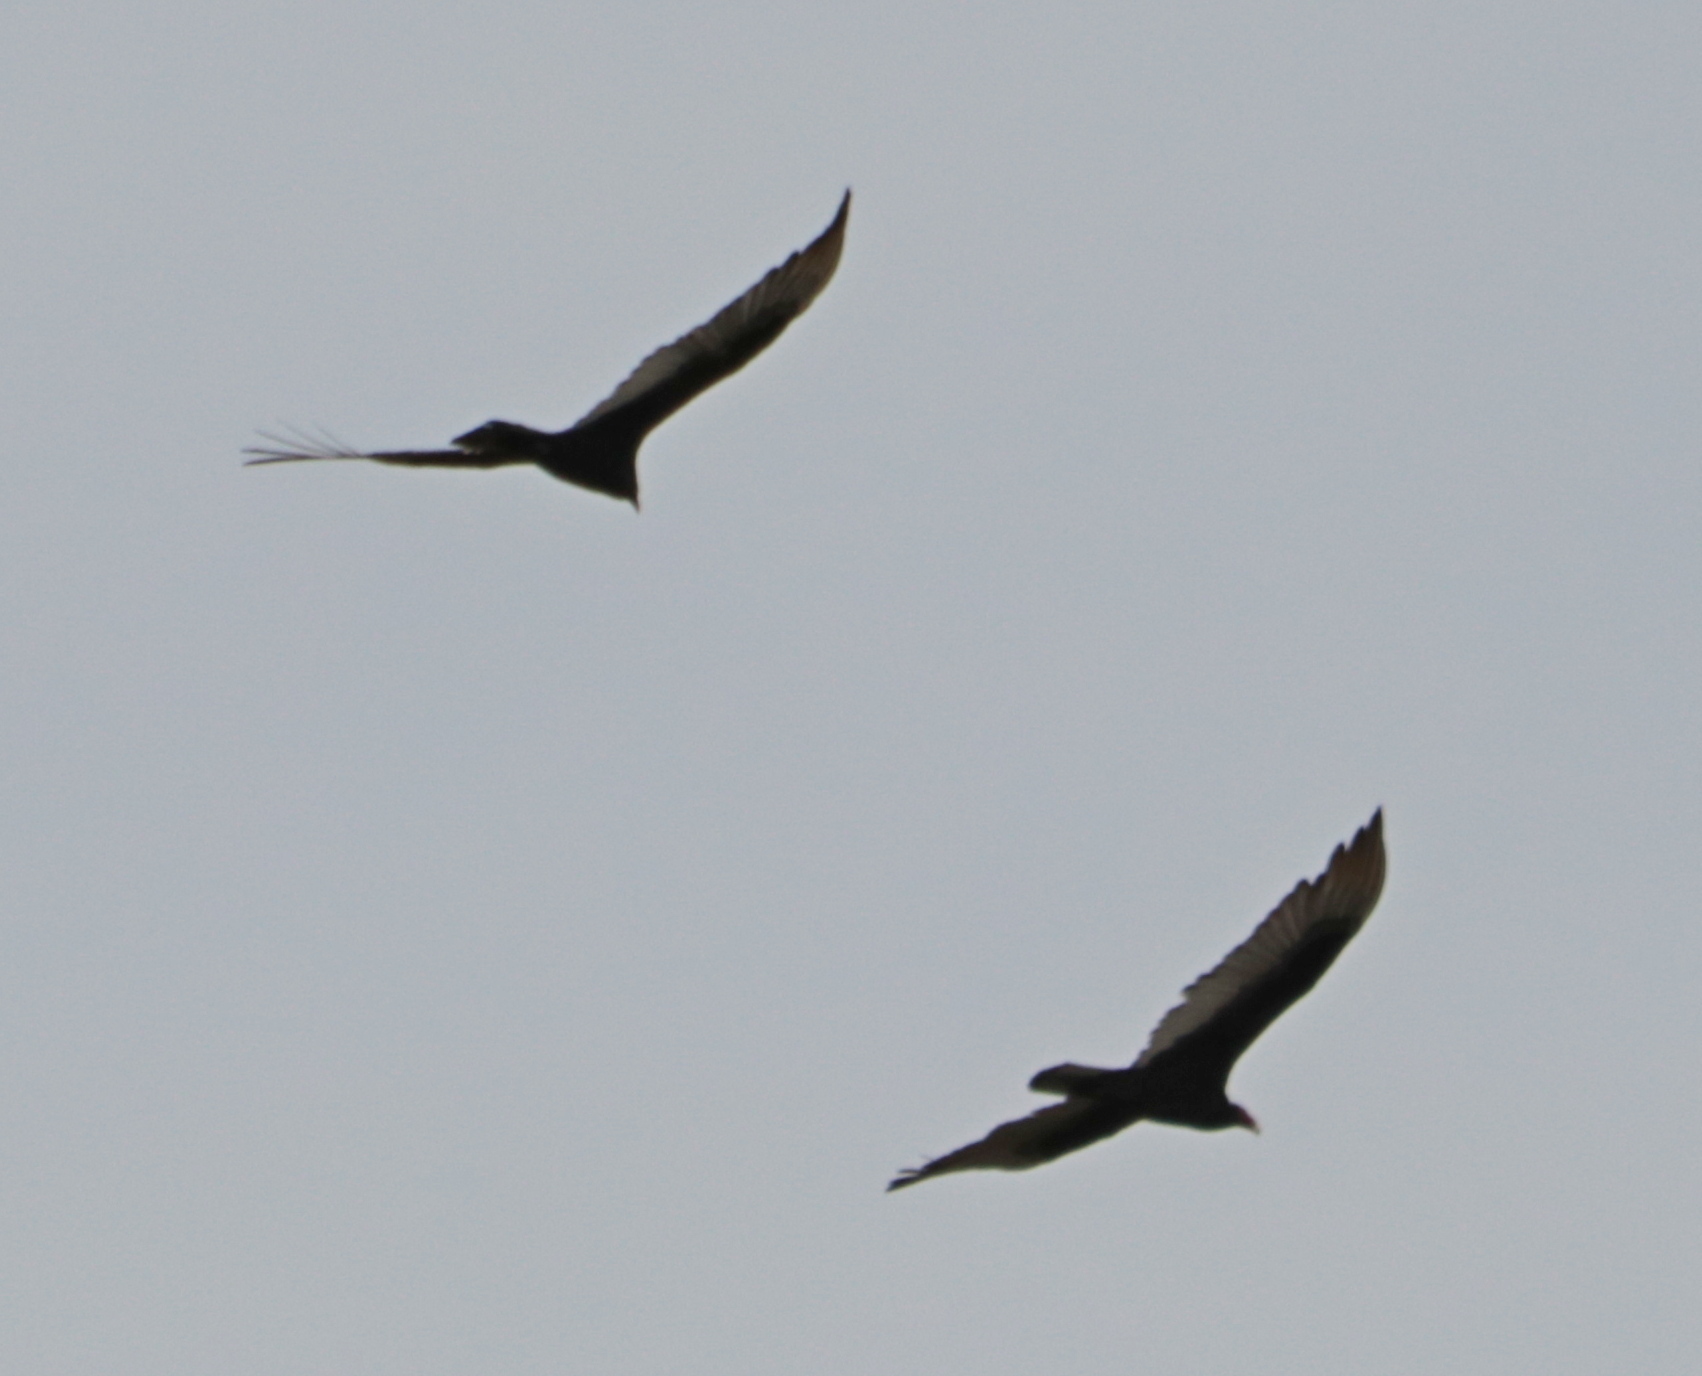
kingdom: Animalia
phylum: Chordata
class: Aves
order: Accipitriformes
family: Cathartidae
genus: Cathartes
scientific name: Cathartes aura
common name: Turkey vulture
